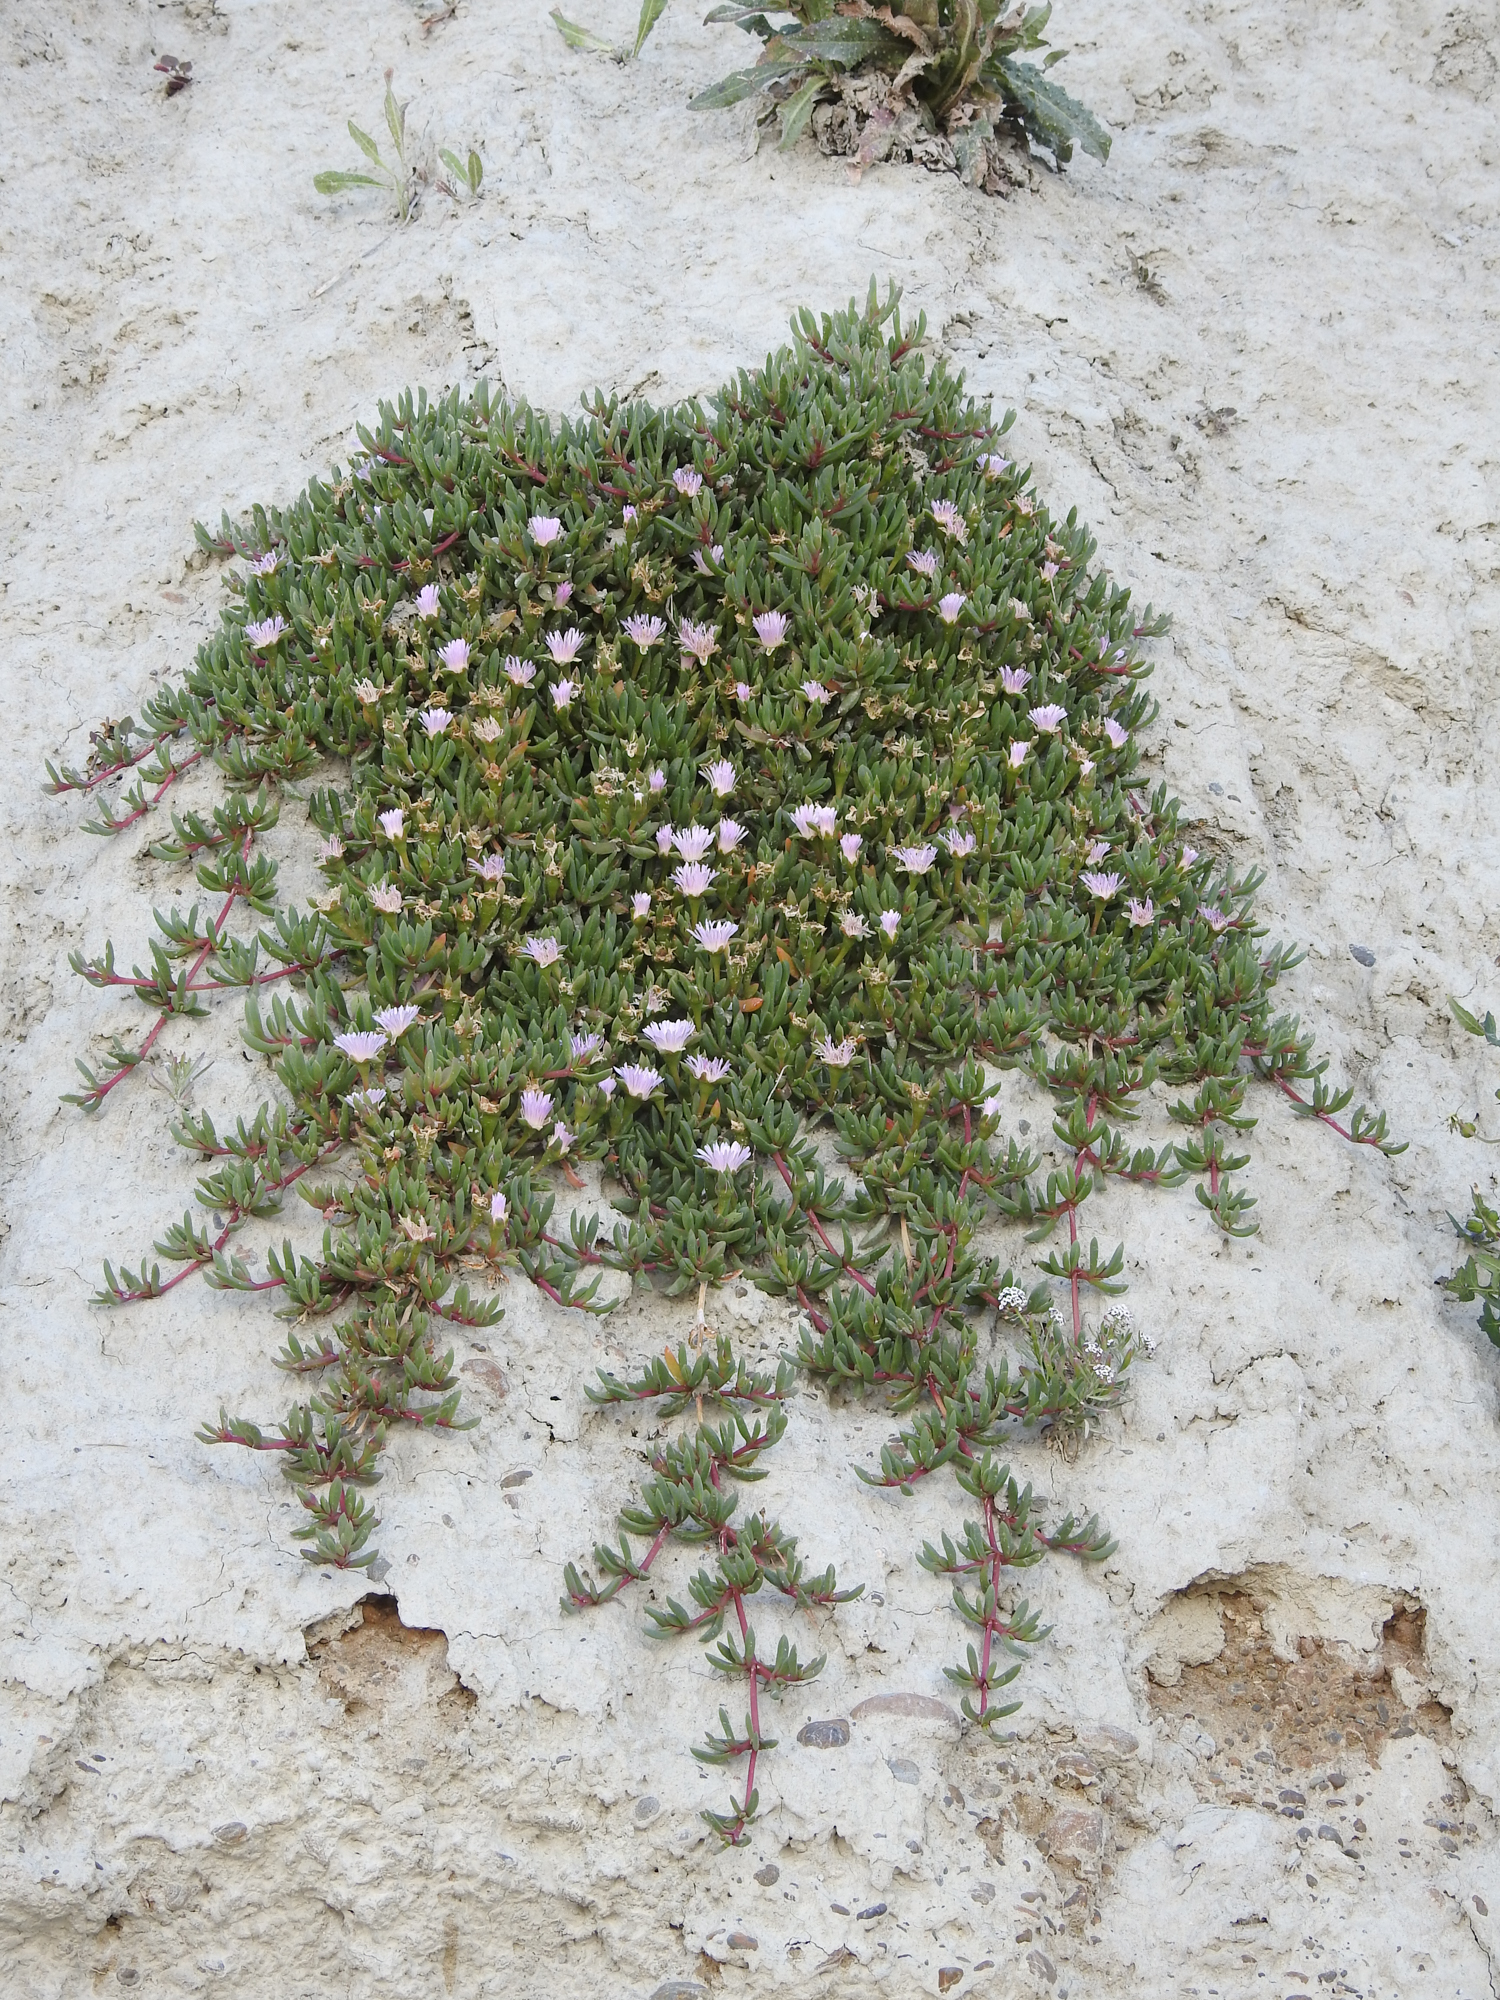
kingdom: Plantae
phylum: Tracheophyta
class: Magnoliopsida
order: Caryophyllales
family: Aizoaceae
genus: Disphyma
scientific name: Disphyma australe
